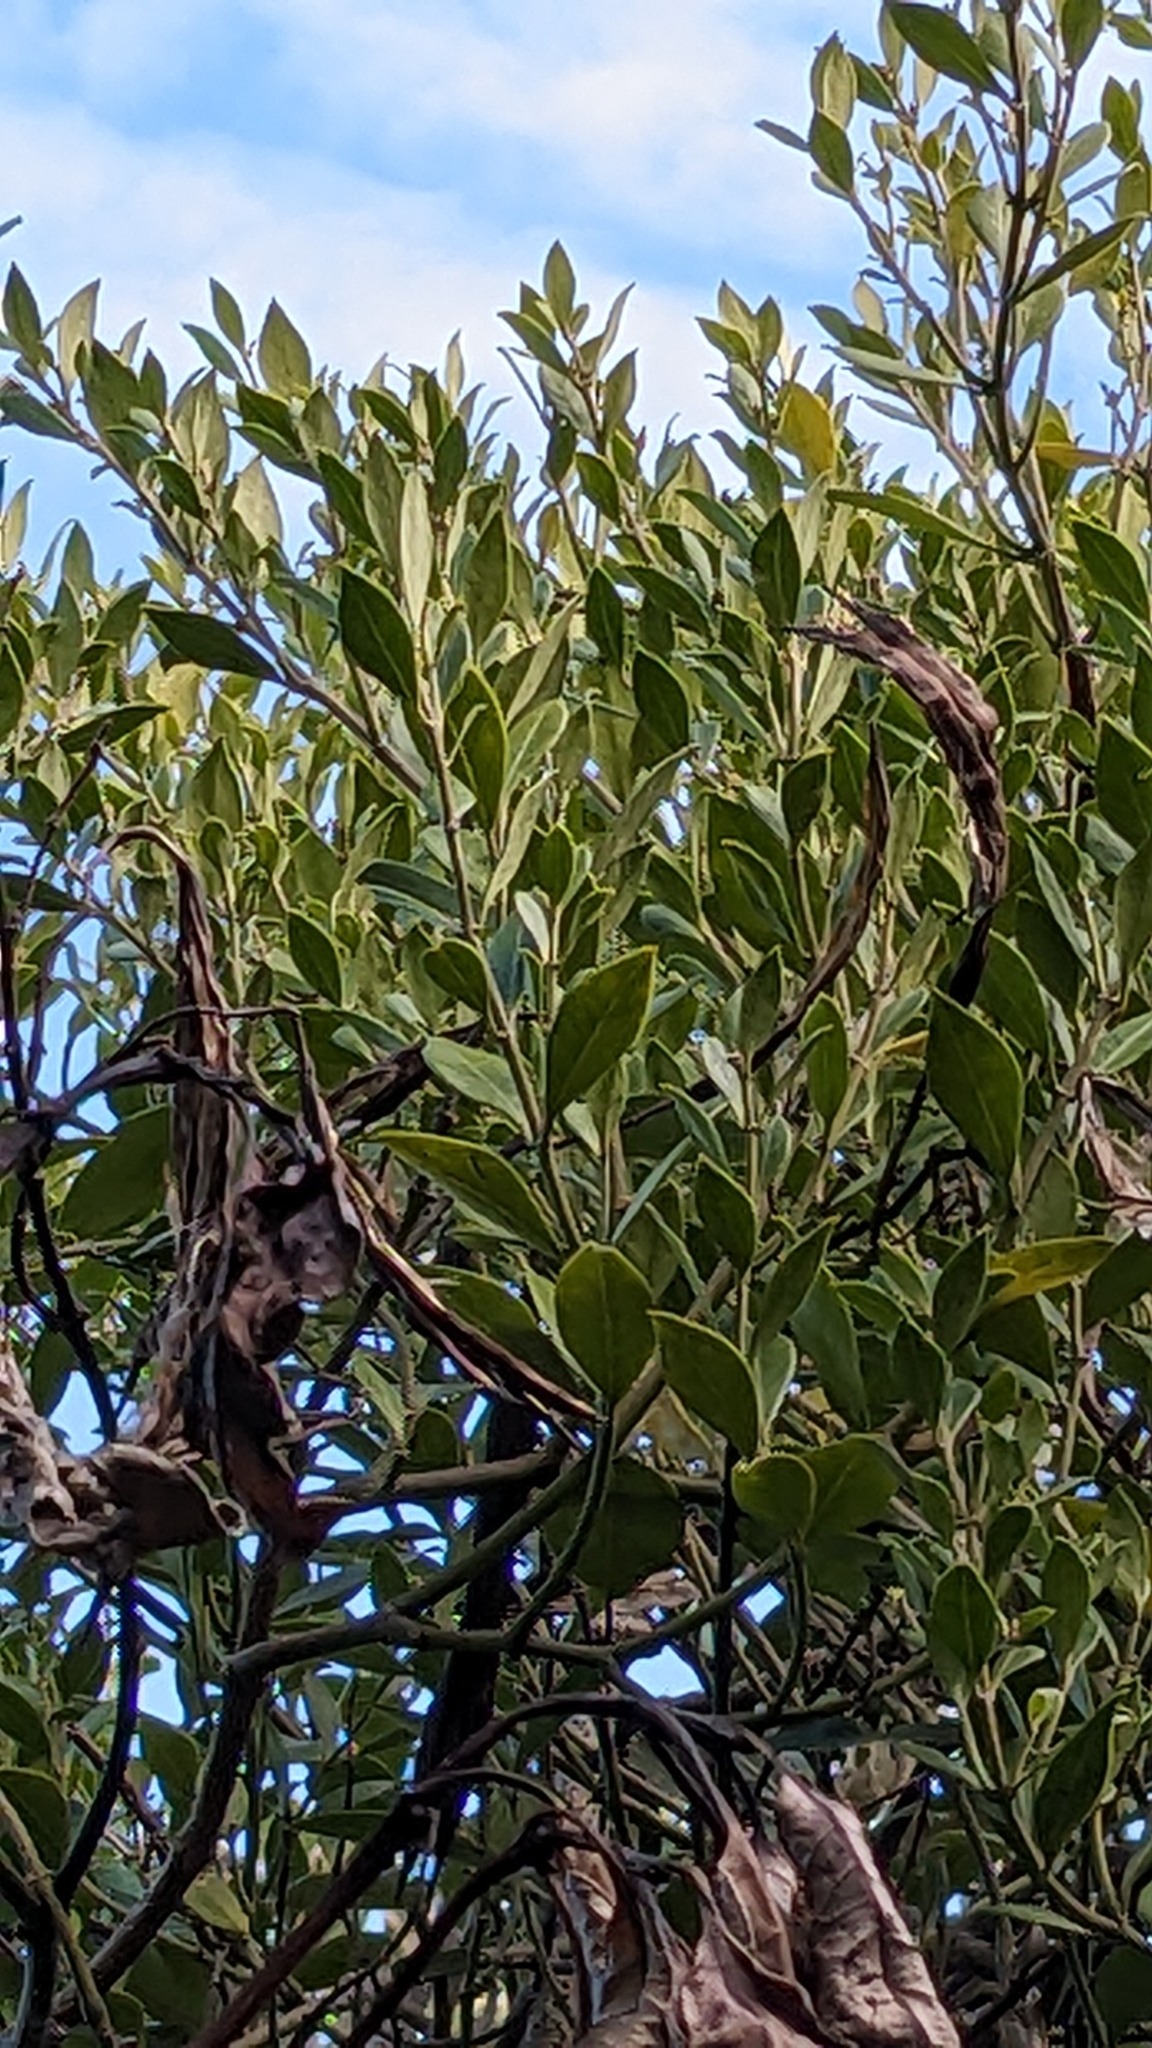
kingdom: Plantae
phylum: Tracheophyta
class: Magnoliopsida
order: Gentianales
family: Apocynaceae
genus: Parsonsia
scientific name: Parsonsia heterophylla
